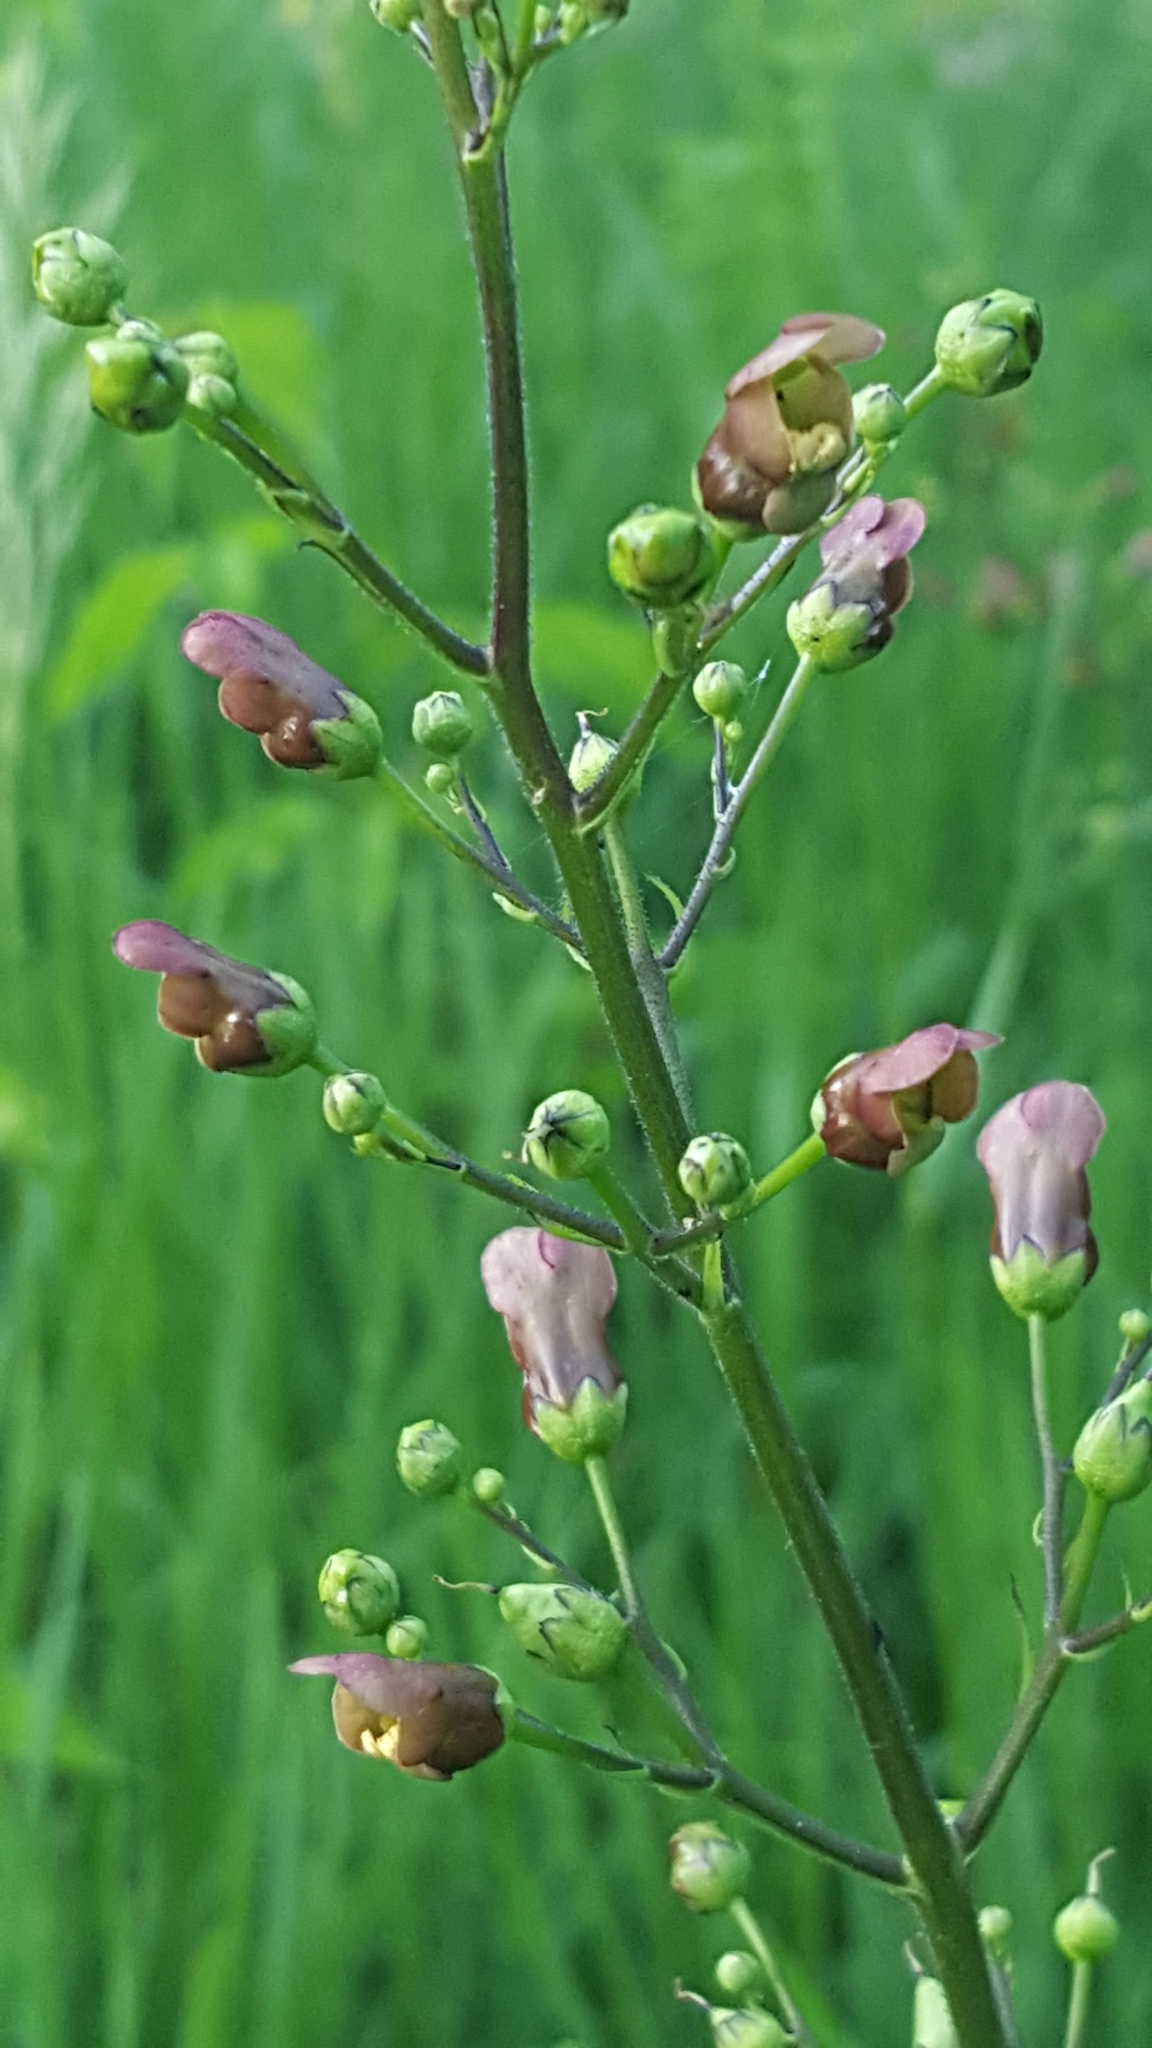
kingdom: Plantae
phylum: Tracheophyta
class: Magnoliopsida
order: Lamiales
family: Scrophulariaceae
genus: Scrophularia
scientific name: Scrophularia lanceolata
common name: American figwort
